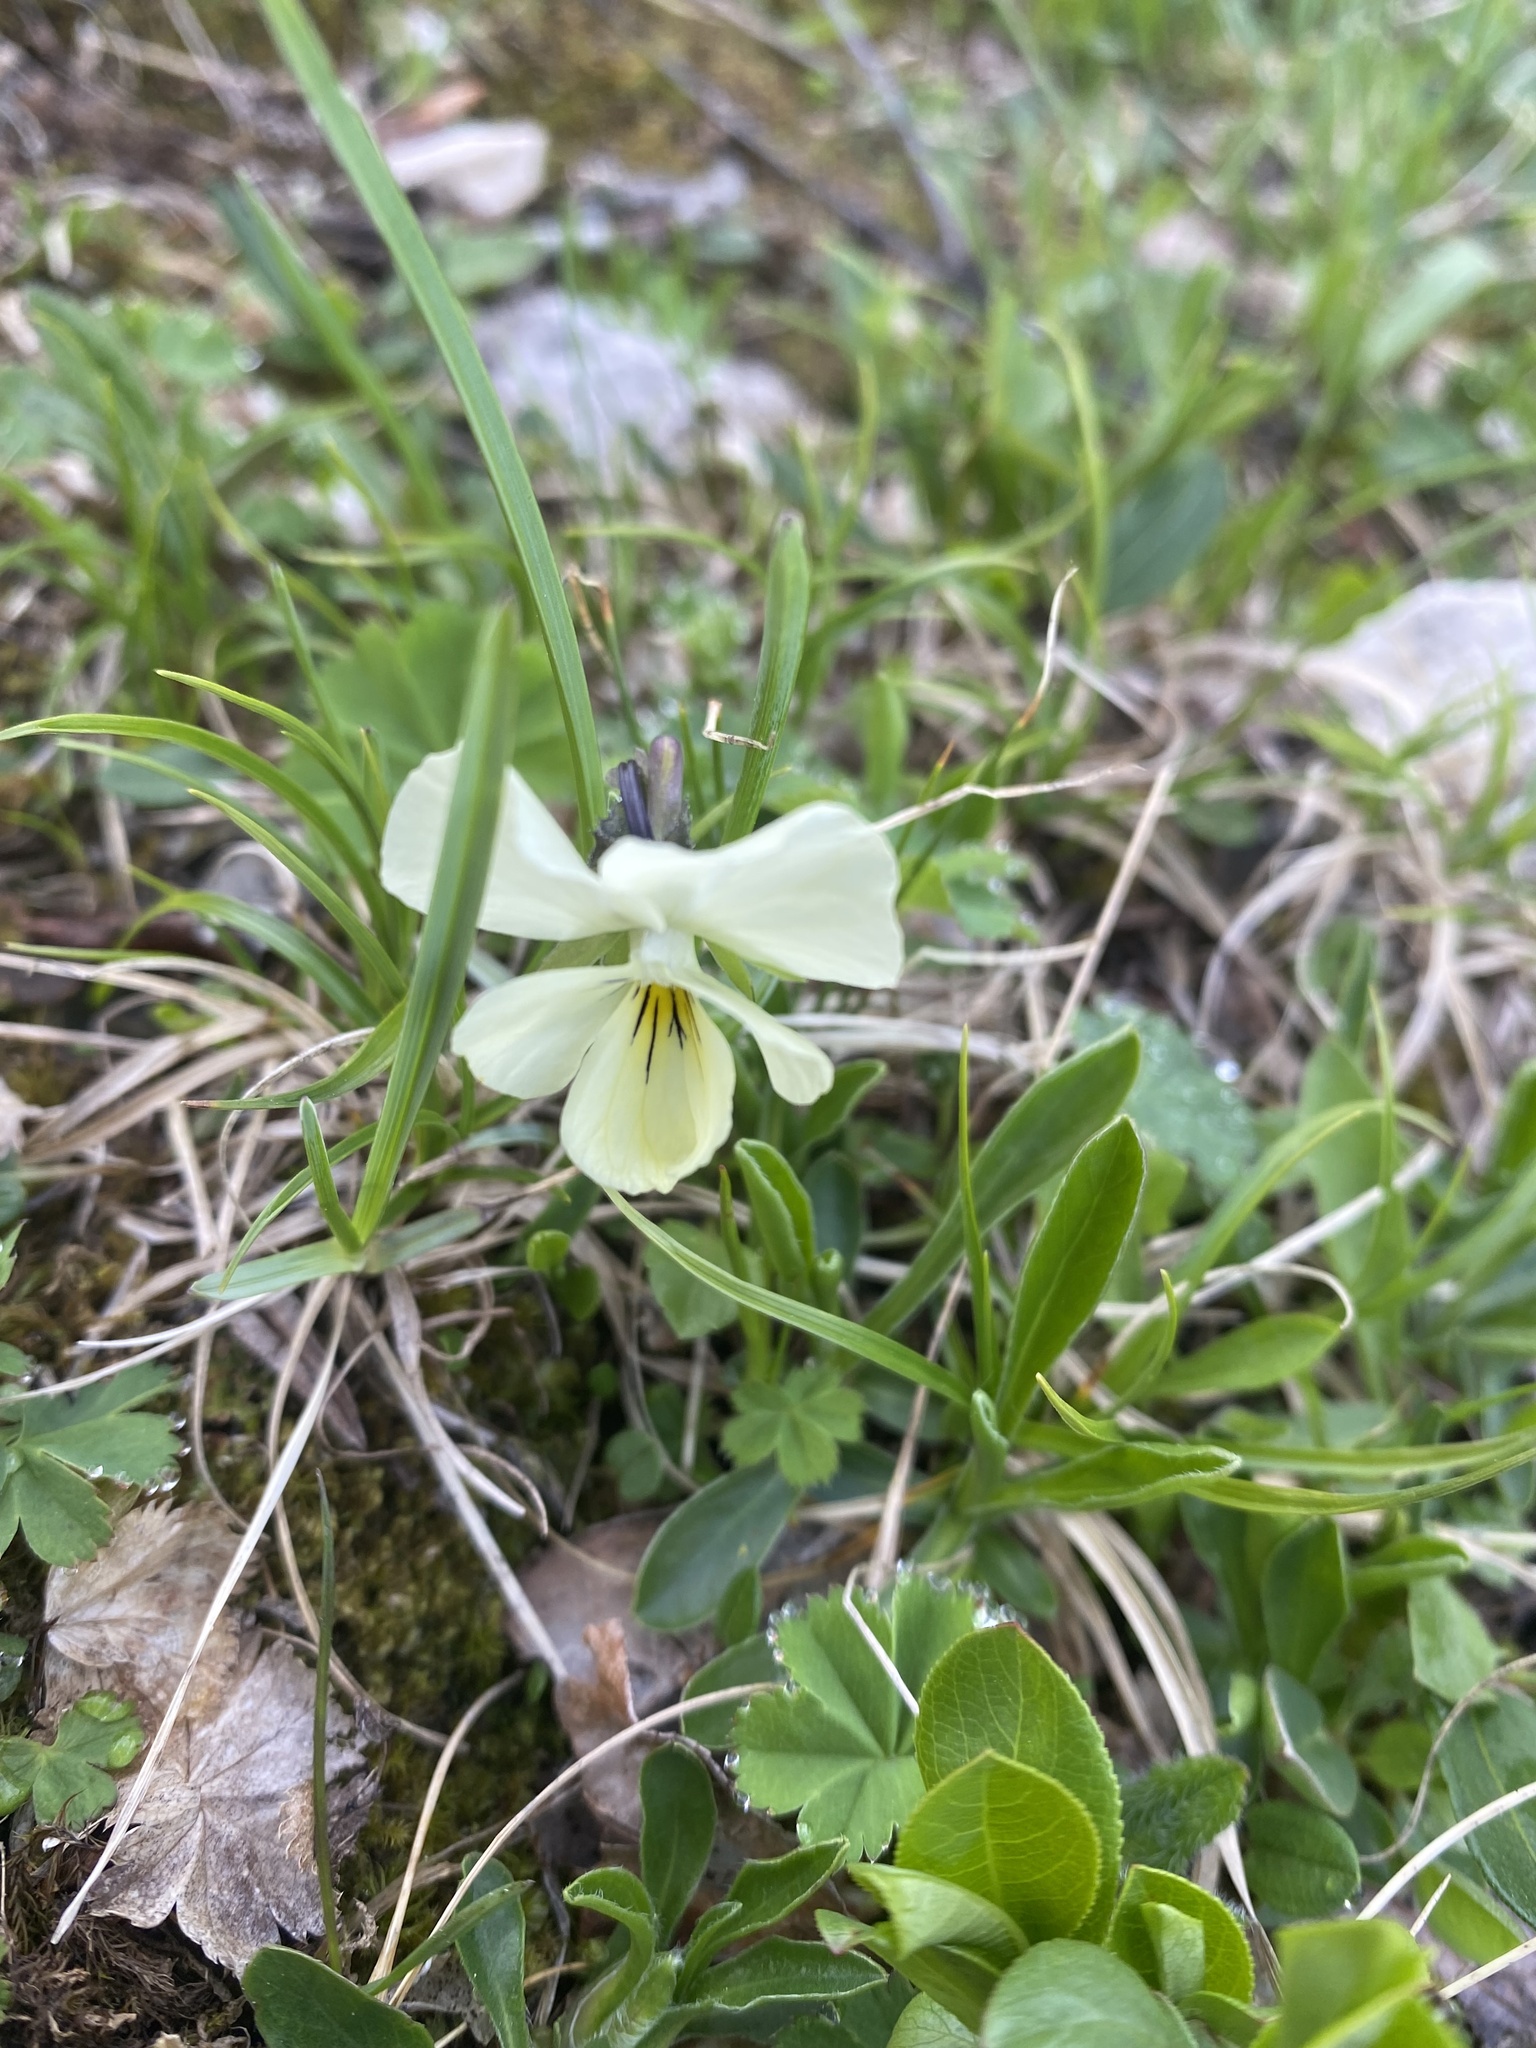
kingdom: Plantae
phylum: Tracheophyta
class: Magnoliopsida
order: Malpighiales
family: Violaceae
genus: Viola
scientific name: Viola oreades
